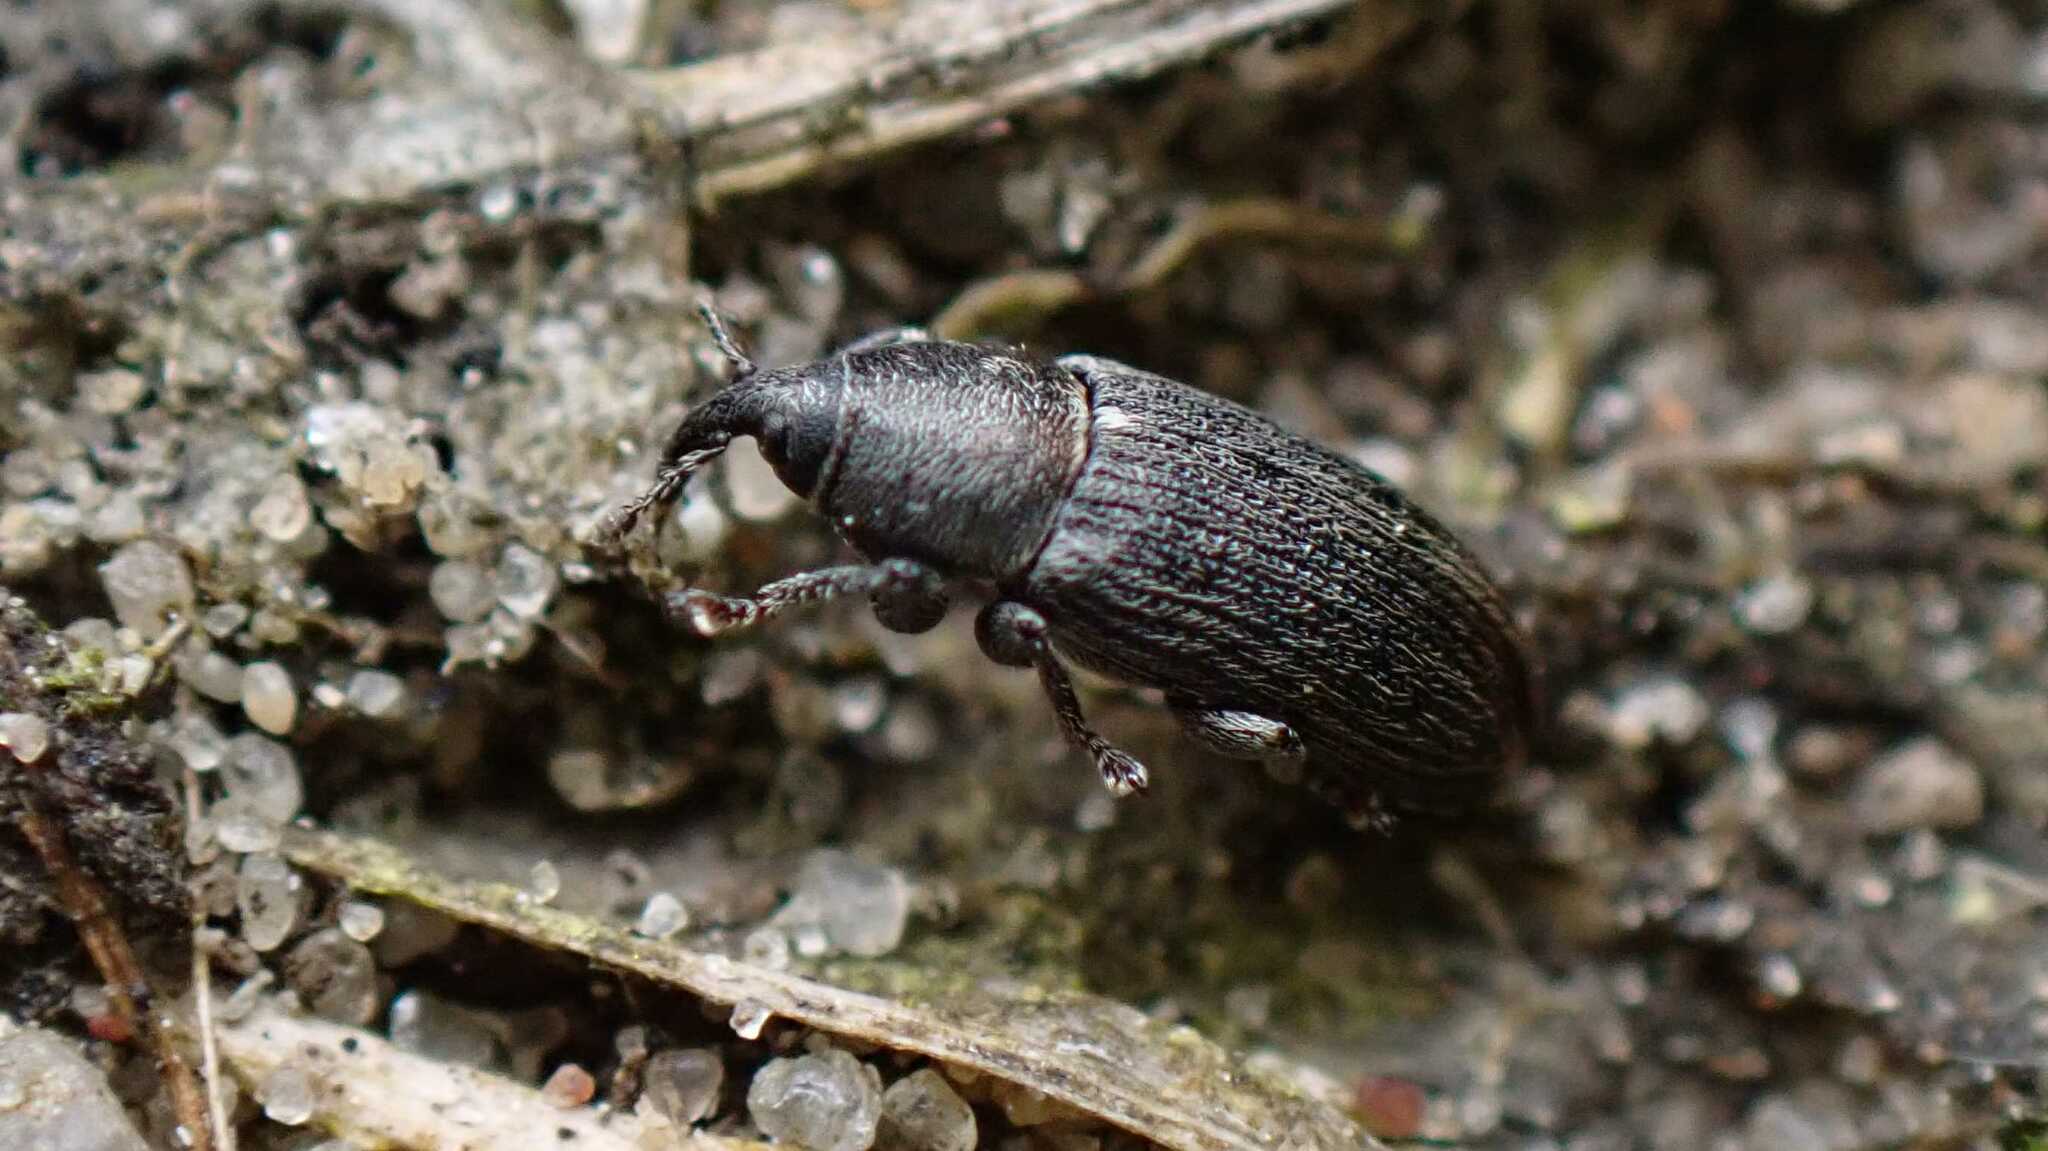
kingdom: Animalia
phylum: Arthropoda
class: Insecta
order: Coleoptera
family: Curculionidae
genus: Mecinus
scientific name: Mecinus pyraster
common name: Weevil
